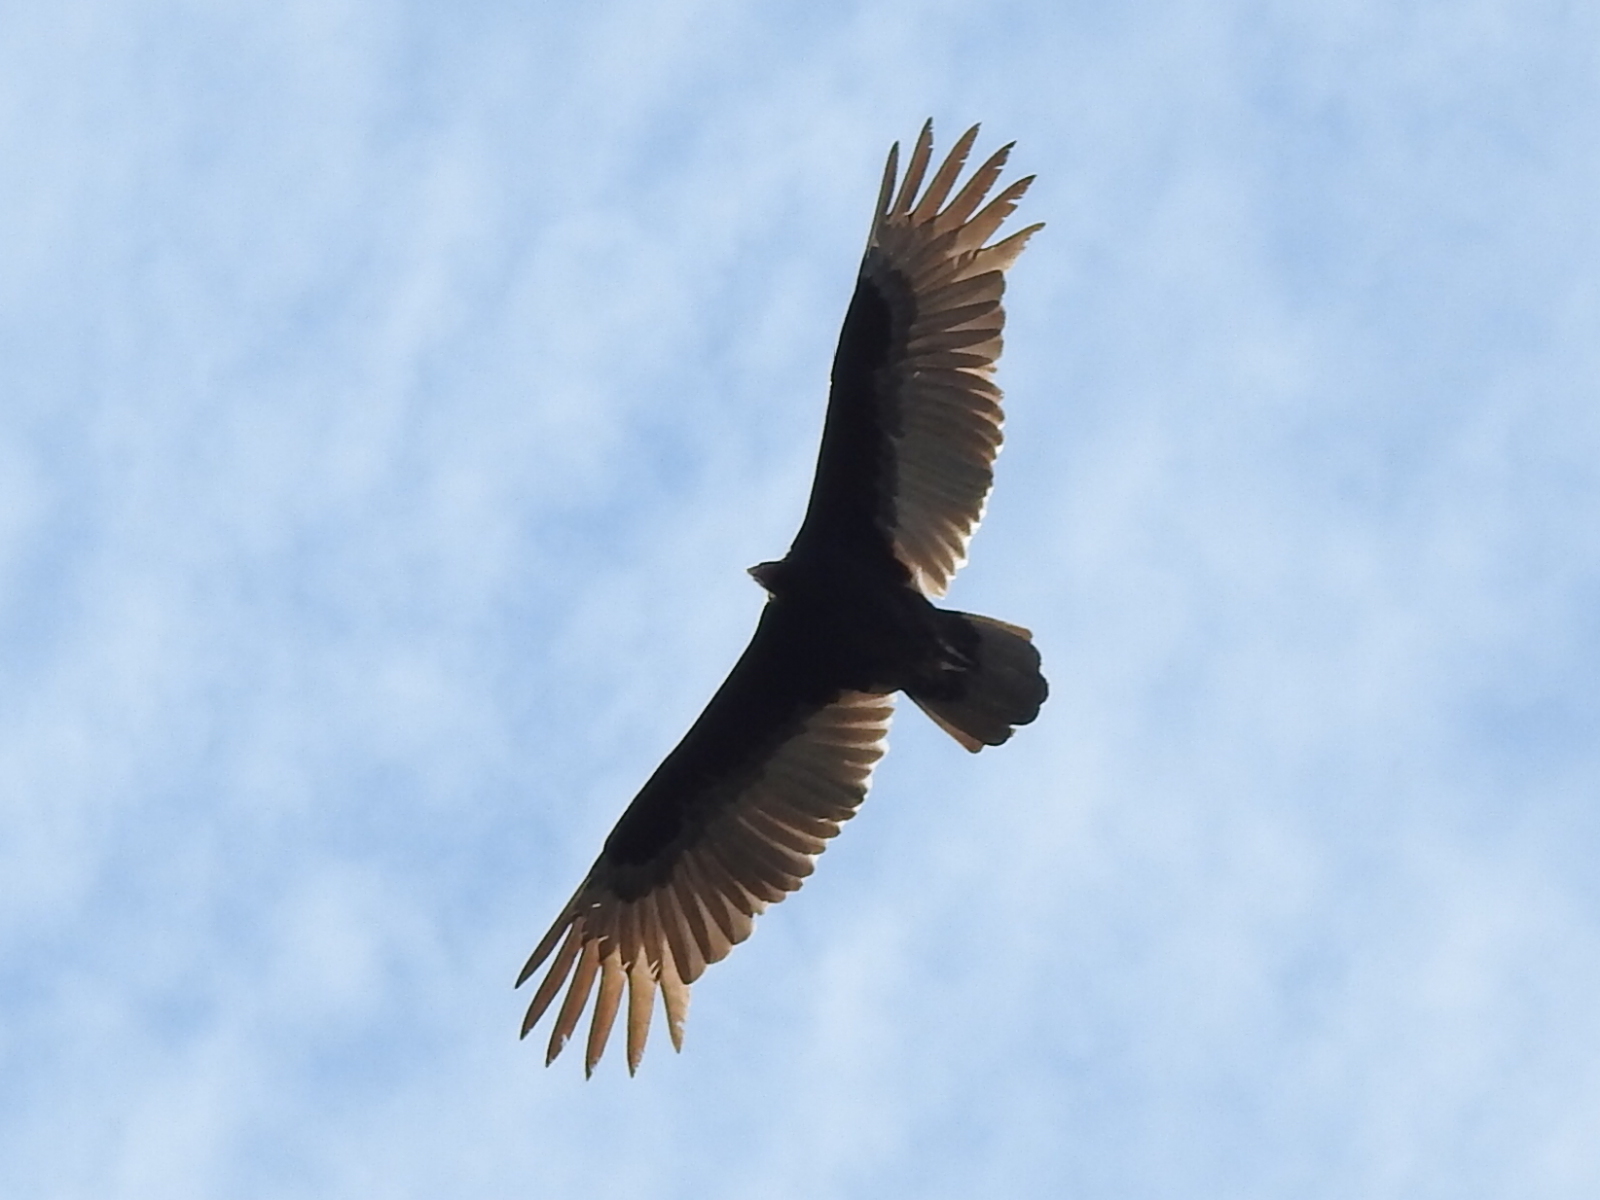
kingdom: Animalia
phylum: Chordata
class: Aves
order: Accipitriformes
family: Cathartidae
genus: Cathartes
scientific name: Cathartes aura
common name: Turkey vulture
